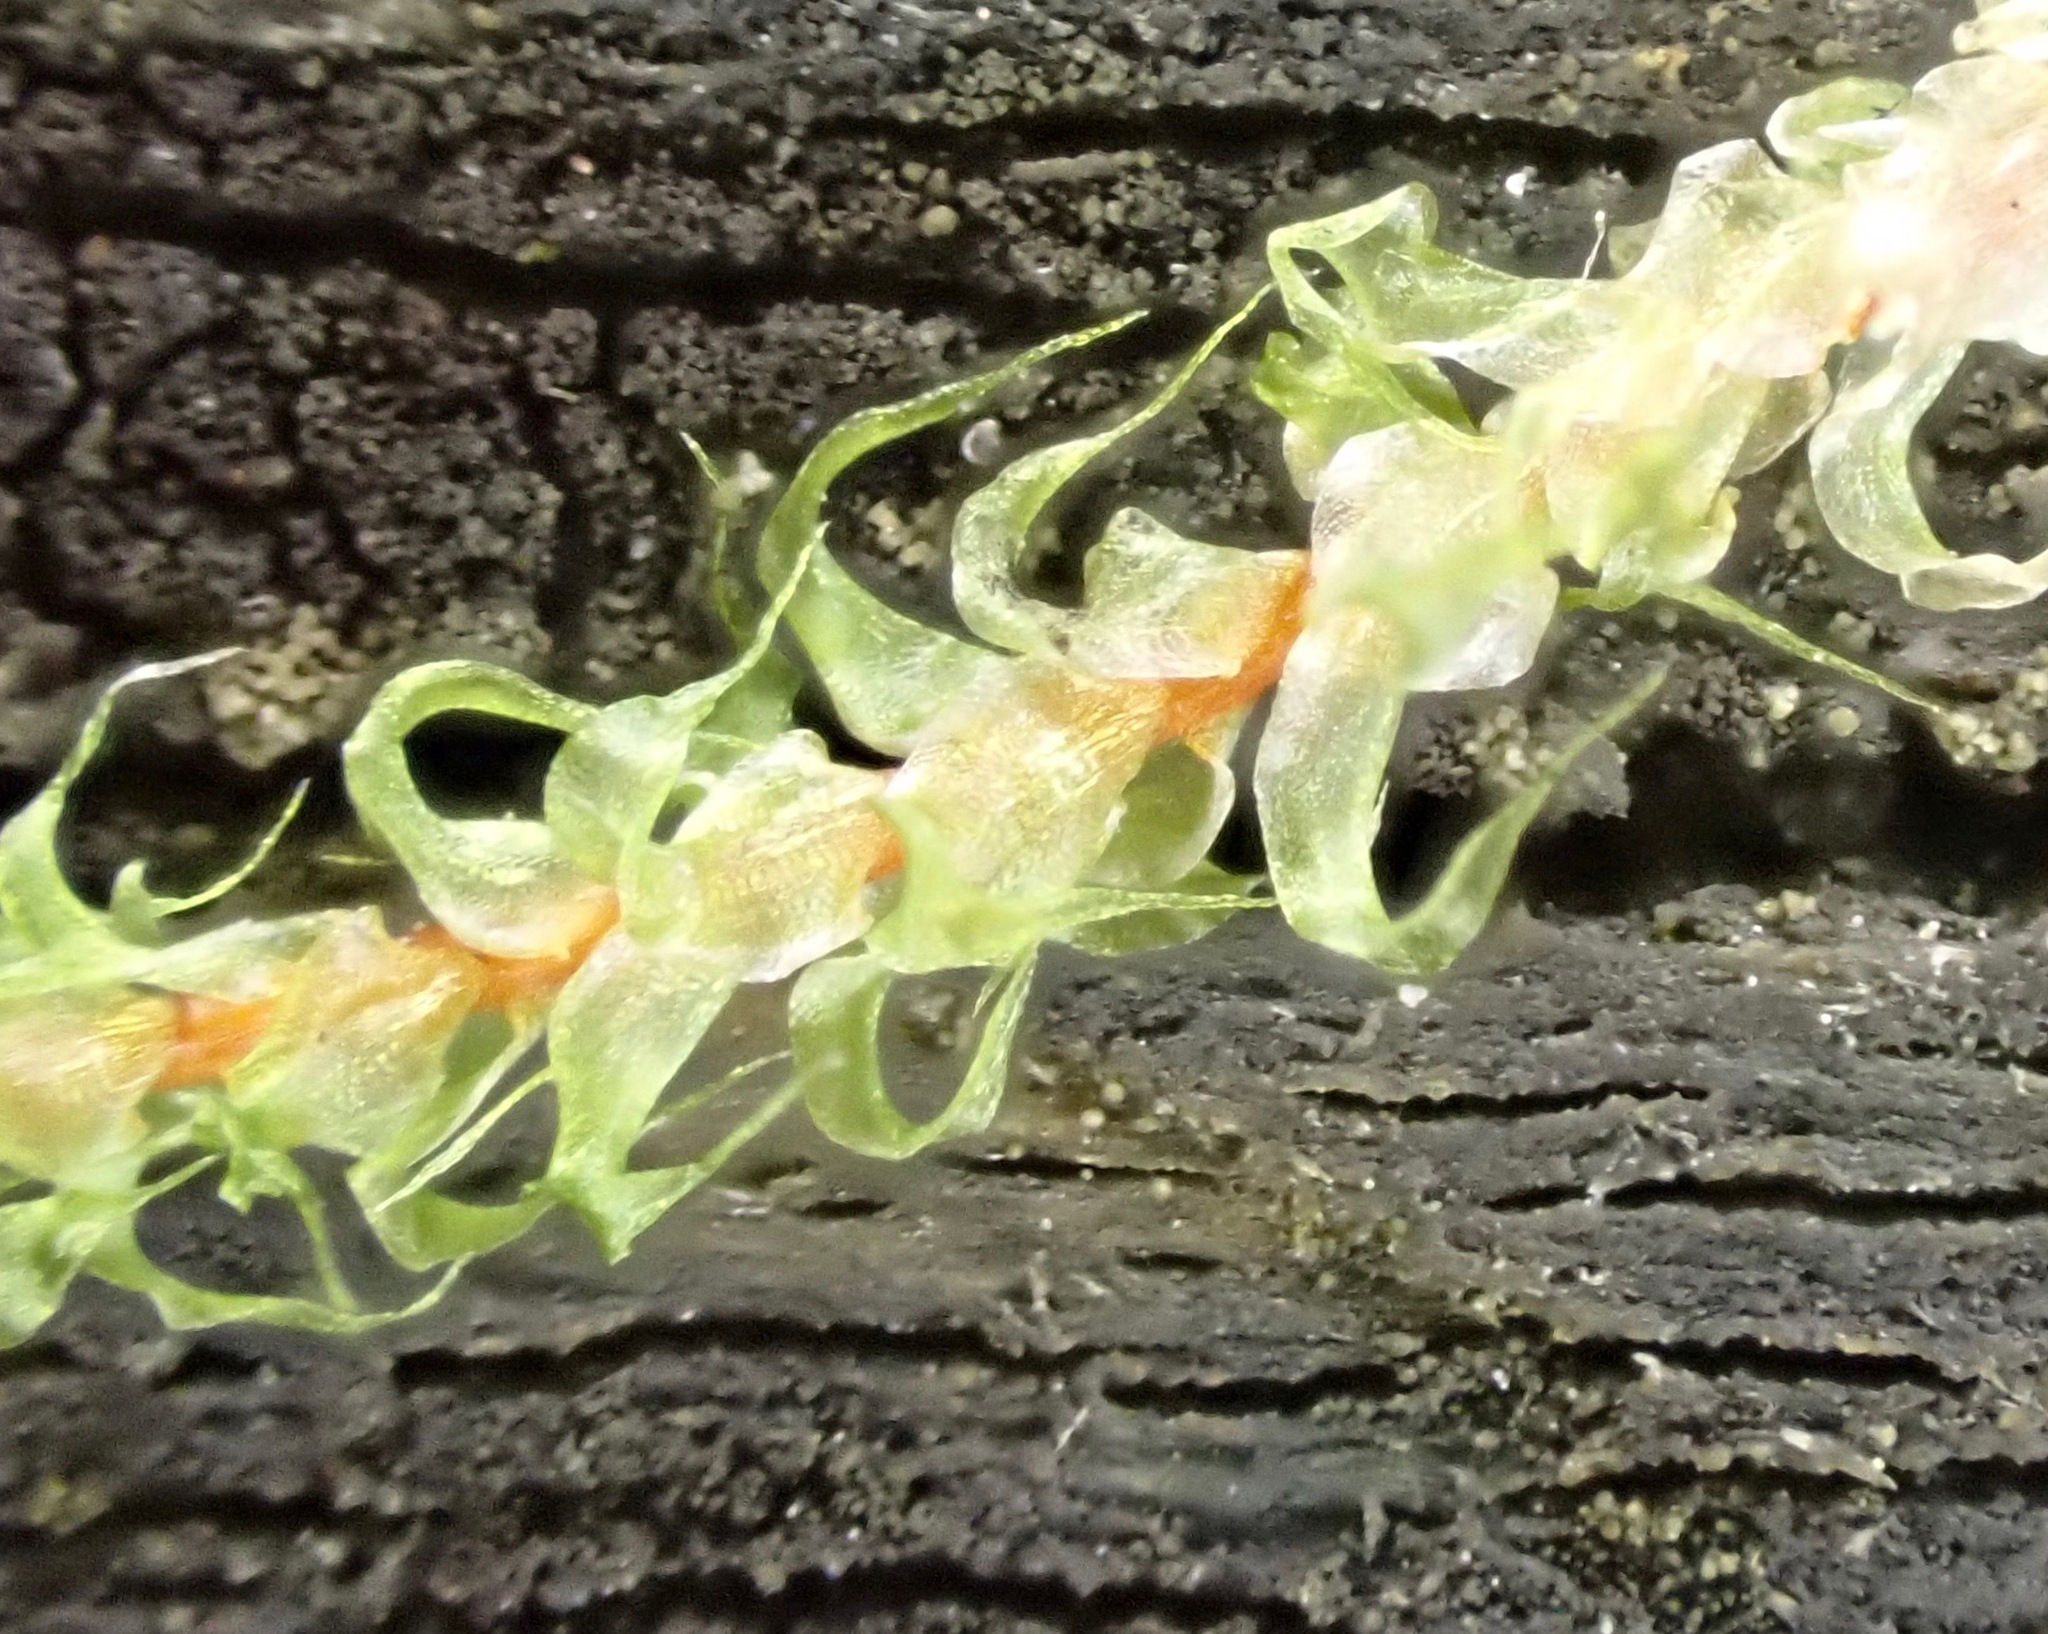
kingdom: Plantae
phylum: Bryophyta
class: Bryopsida
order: Hypnales
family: Hylocomiaceae
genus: Rhytidiadelphus
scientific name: Rhytidiadelphus squarrosus
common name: Springy turf-moss
